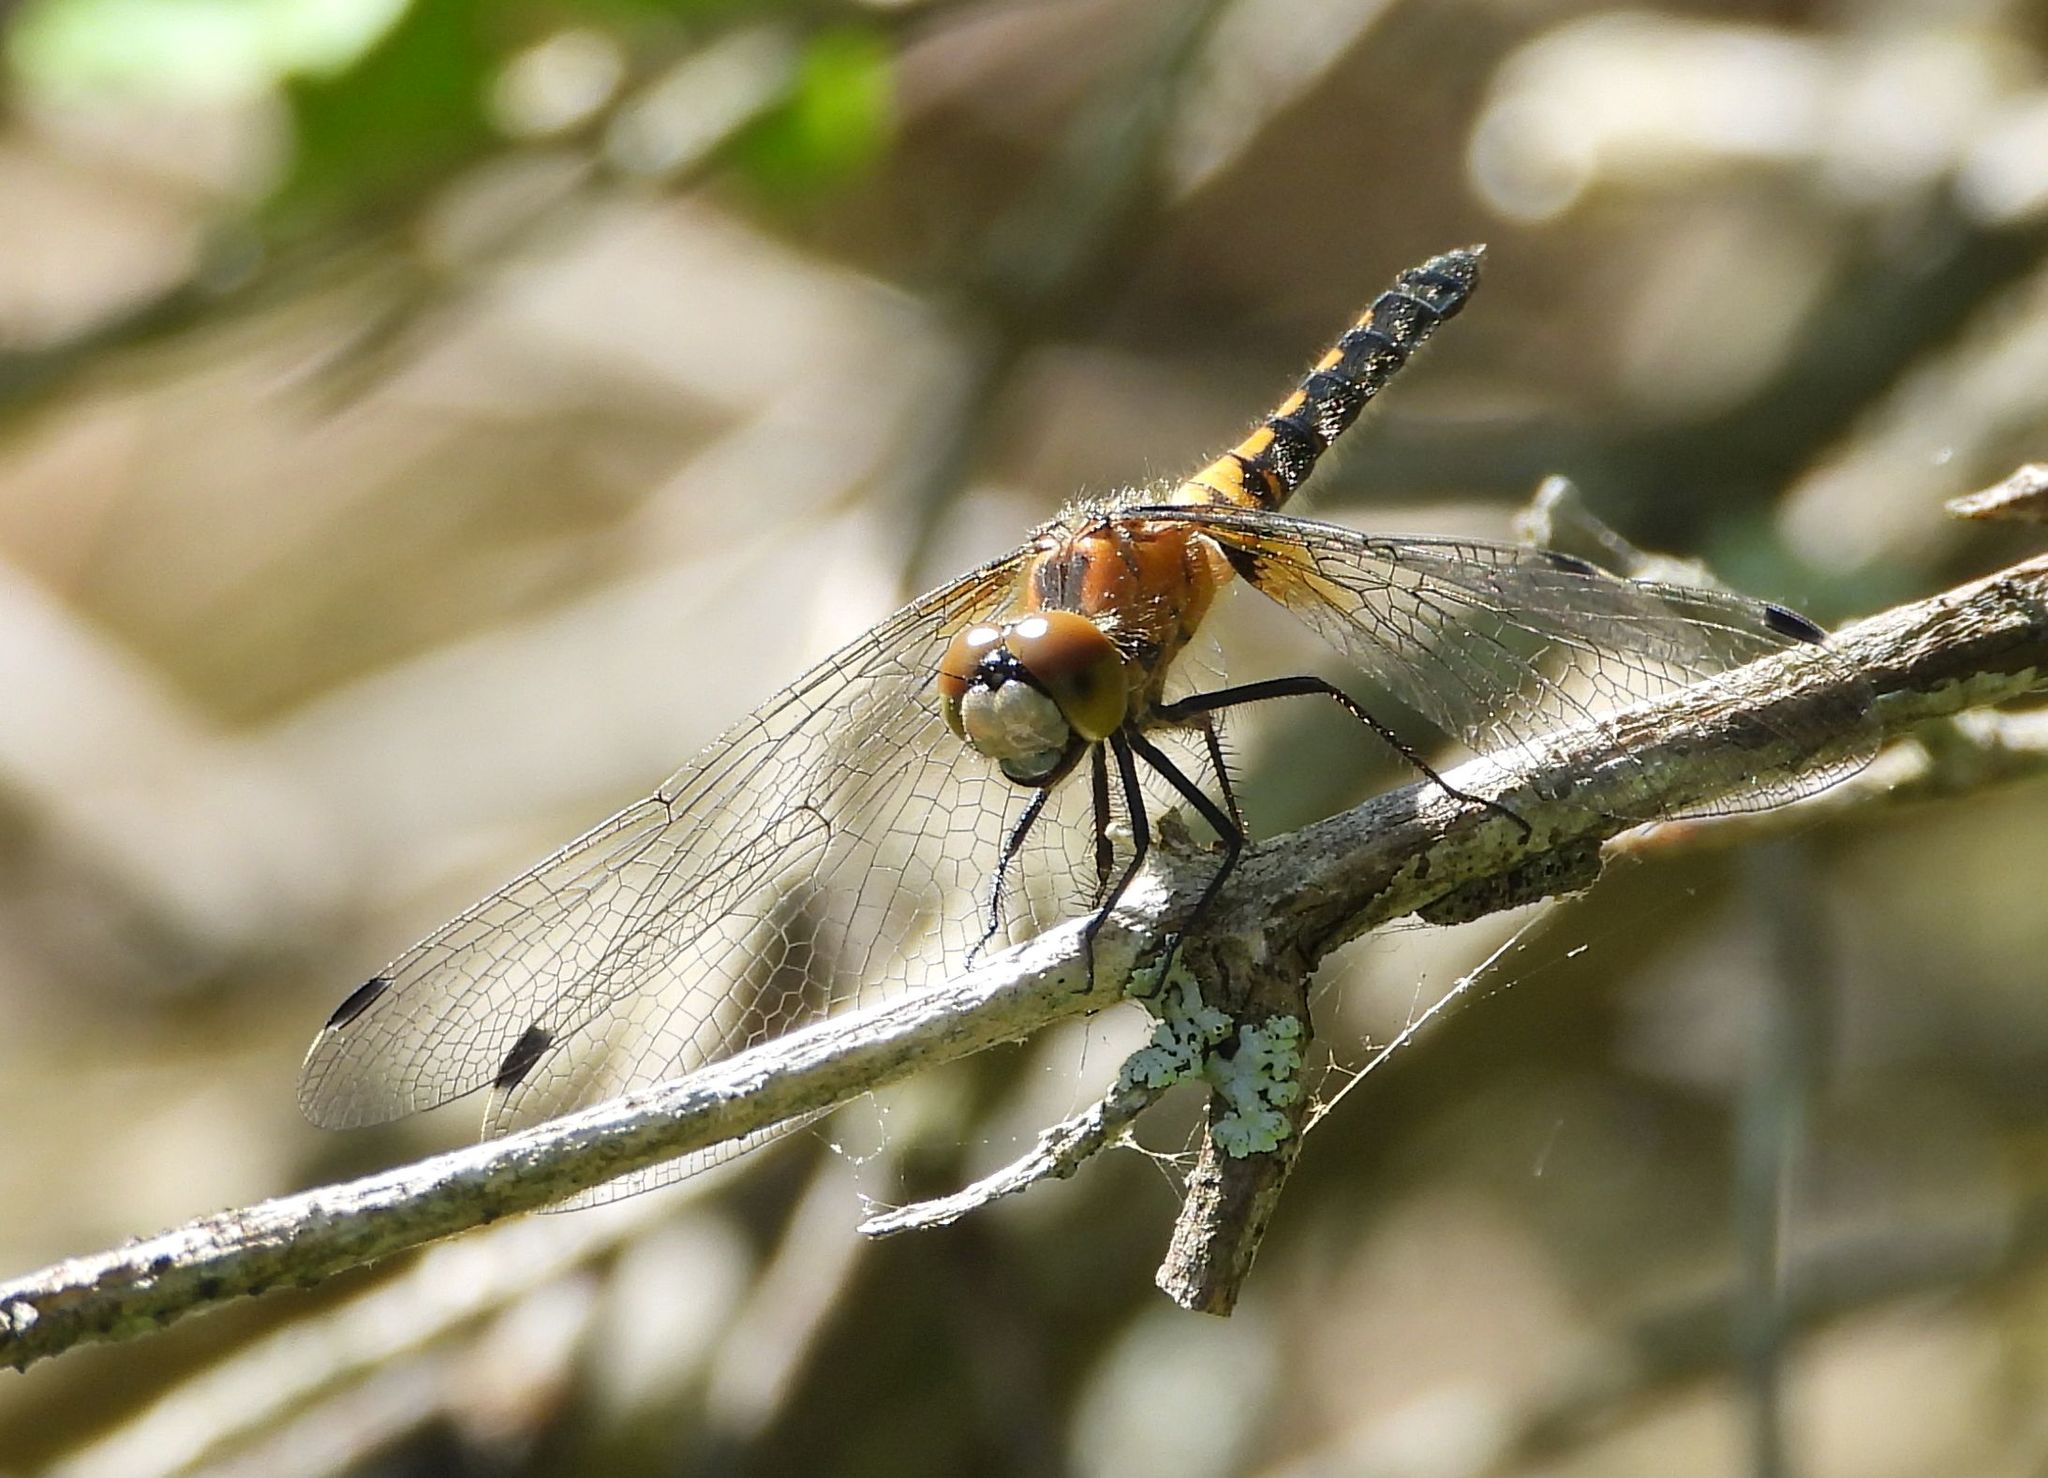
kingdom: Animalia
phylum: Arthropoda
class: Insecta
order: Odonata
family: Libellulidae
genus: Leucorrhinia
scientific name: Leucorrhinia frigida
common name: Frosted whiteface
